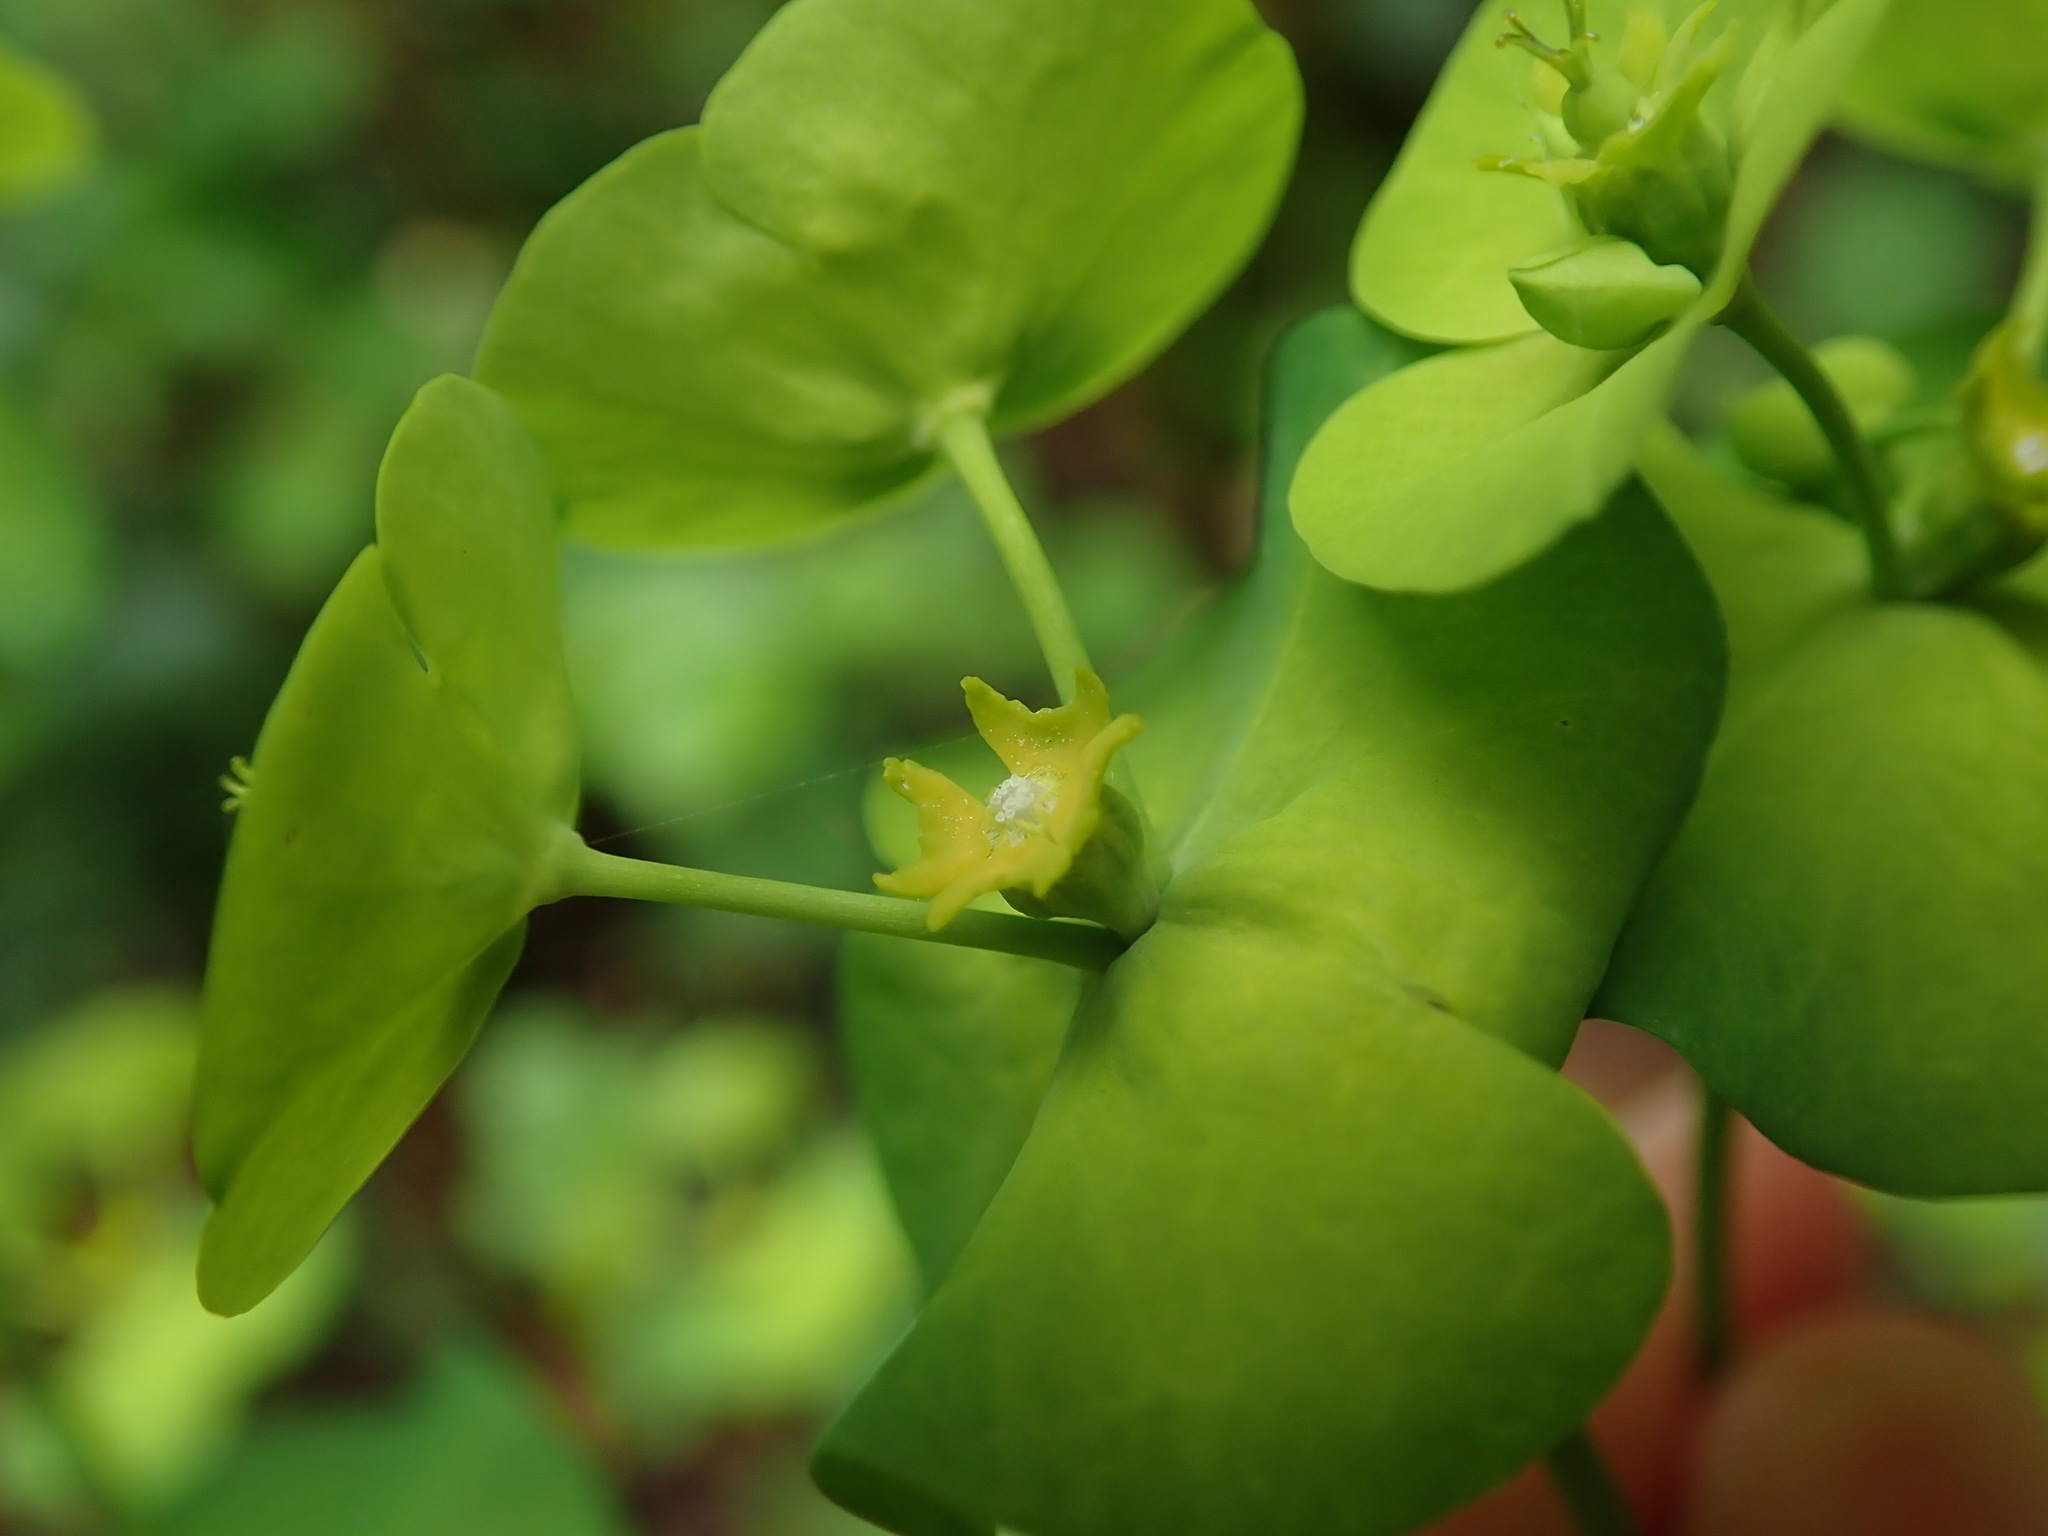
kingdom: Plantae
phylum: Tracheophyta
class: Magnoliopsida
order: Malpighiales
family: Euphorbiaceae
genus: Euphorbia
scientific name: Euphorbia amygdaloides
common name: Wood spurge
